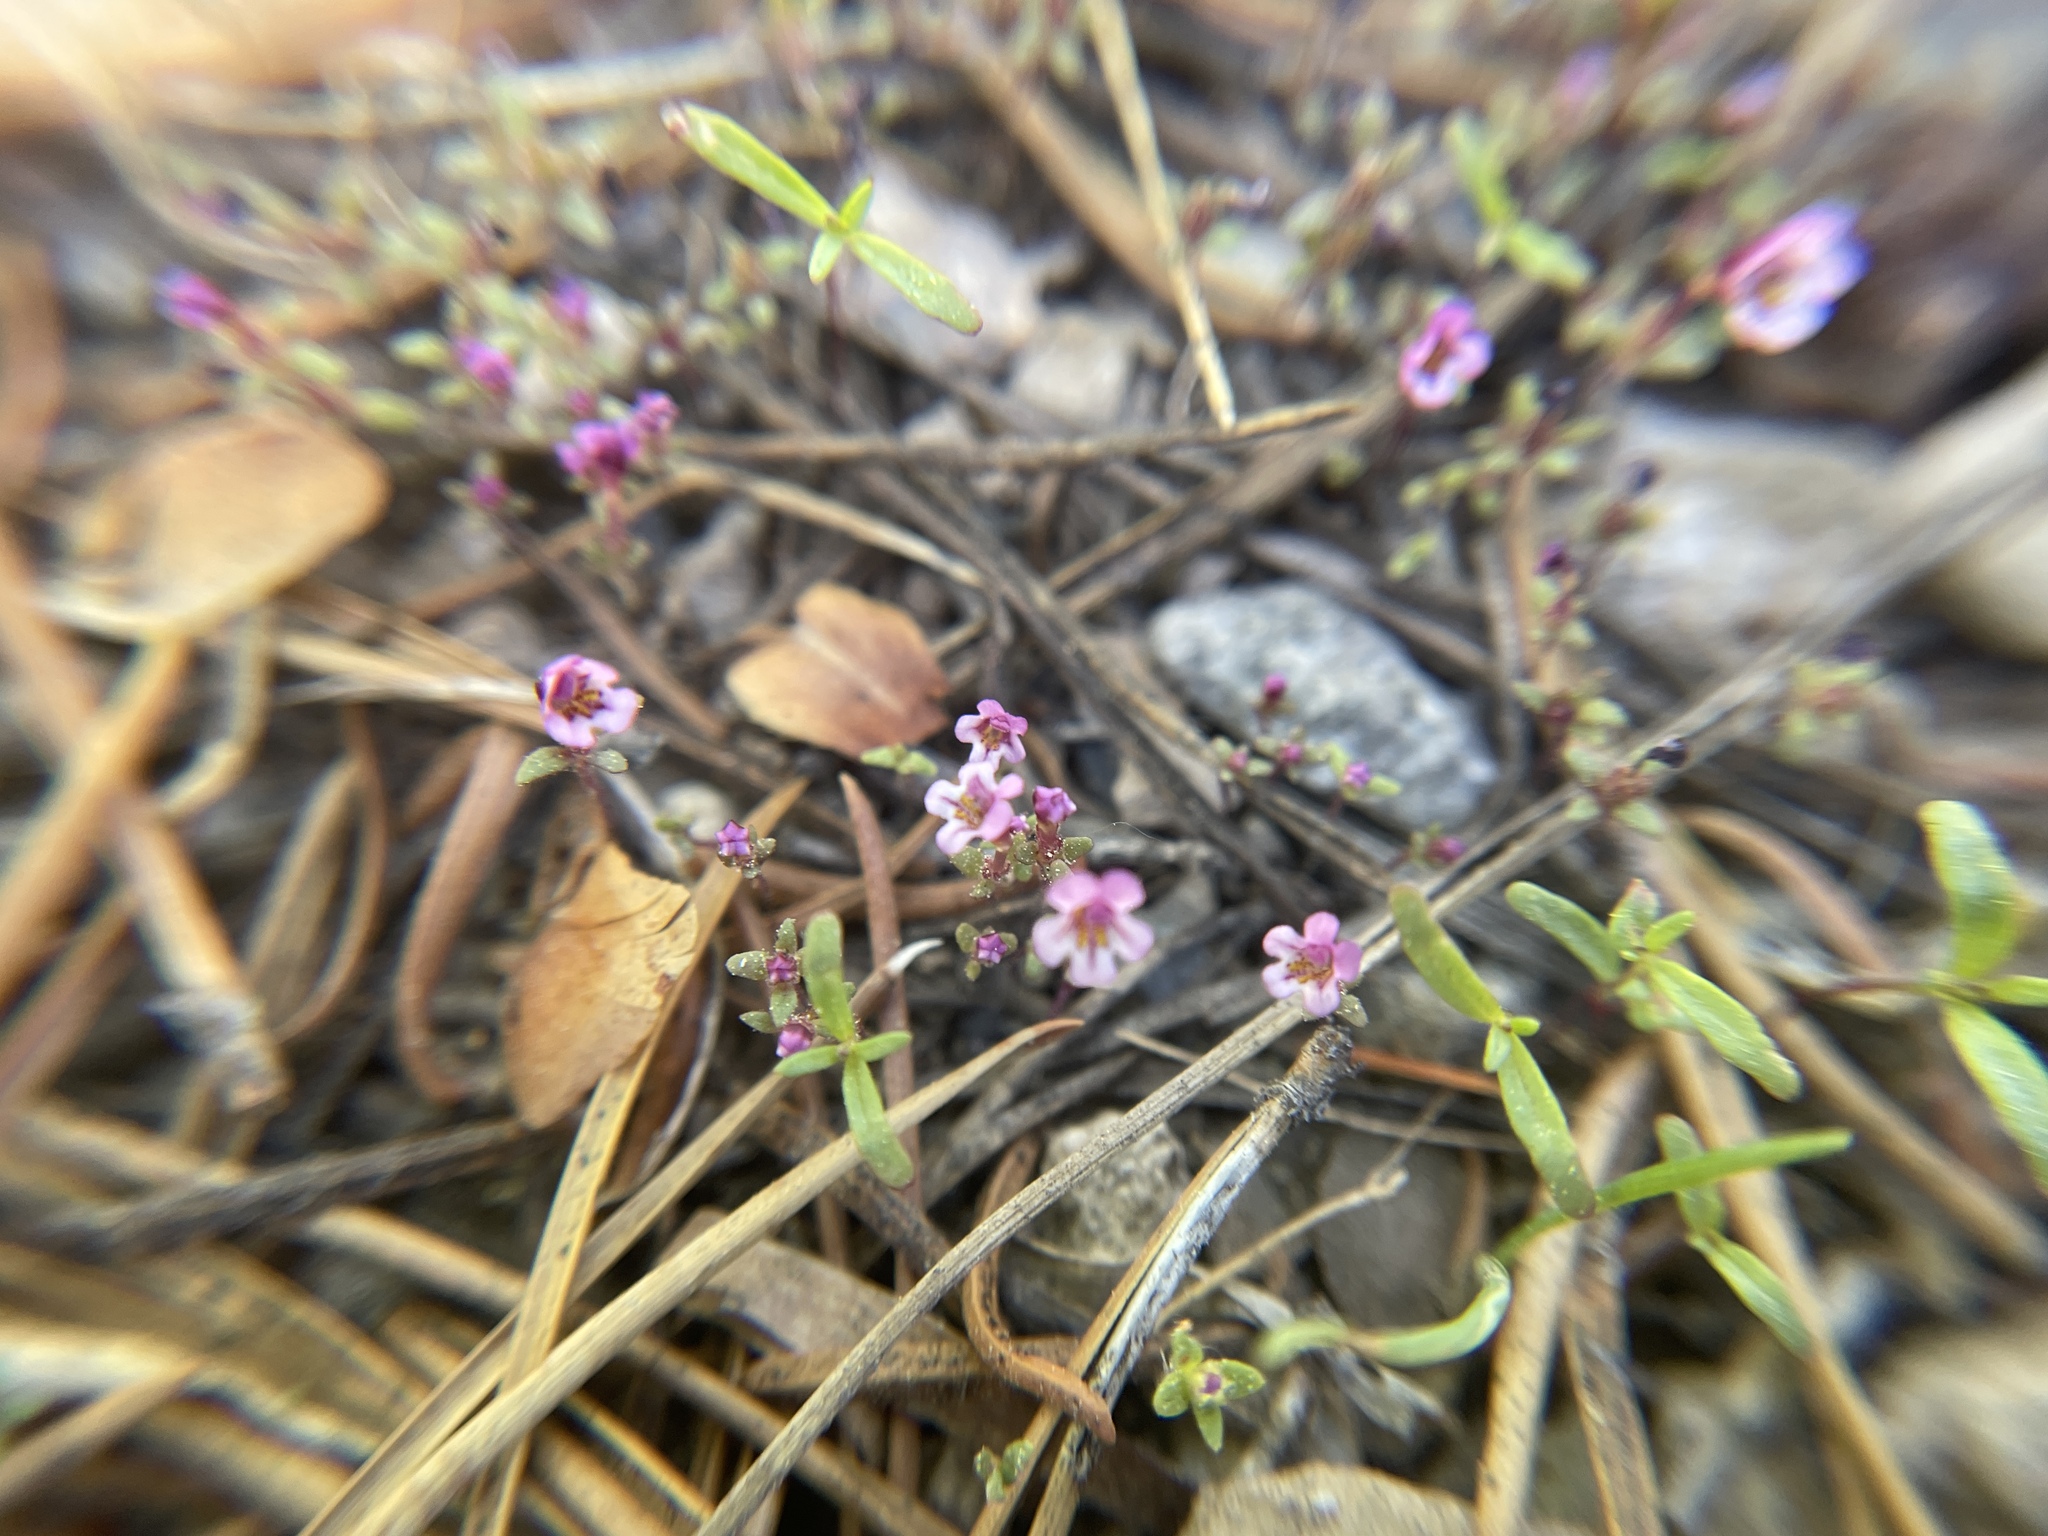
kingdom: Plantae
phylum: Tracheophyta
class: Magnoliopsida
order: Lamiales
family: Phrymaceae
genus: Diplacus
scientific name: Diplacus jepsonii
